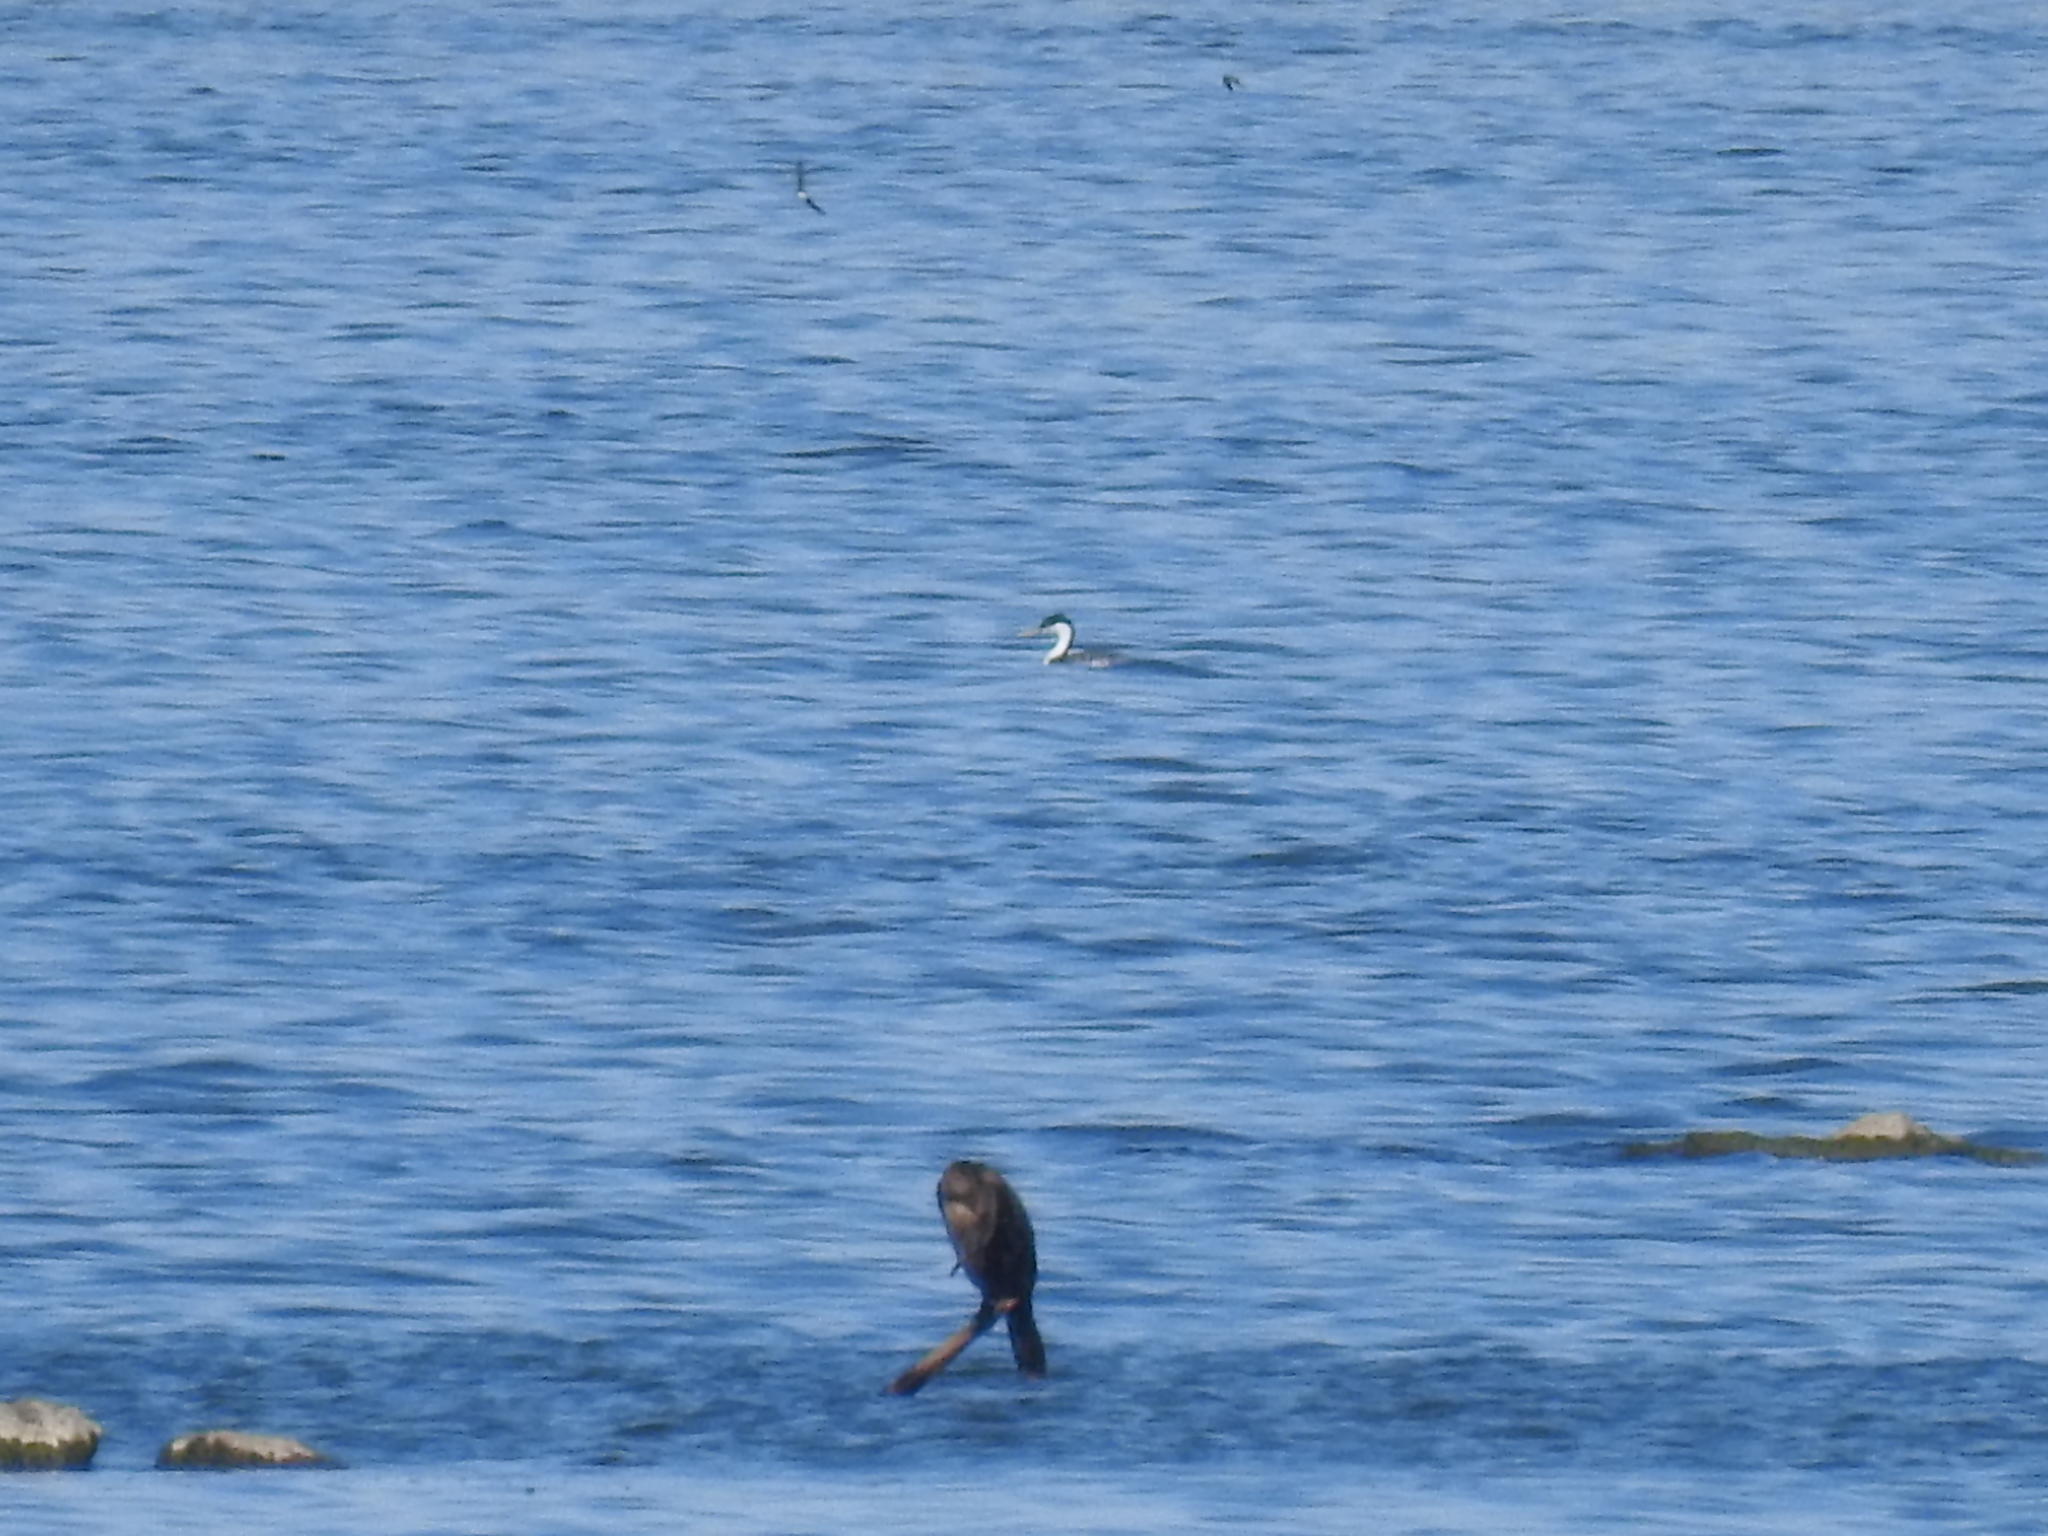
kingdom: Animalia
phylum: Chordata
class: Aves
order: Podicipediformes
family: Podicipedidae
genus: Aechmophorus
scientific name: Aechmophorus occidentalis
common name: Western grebe
